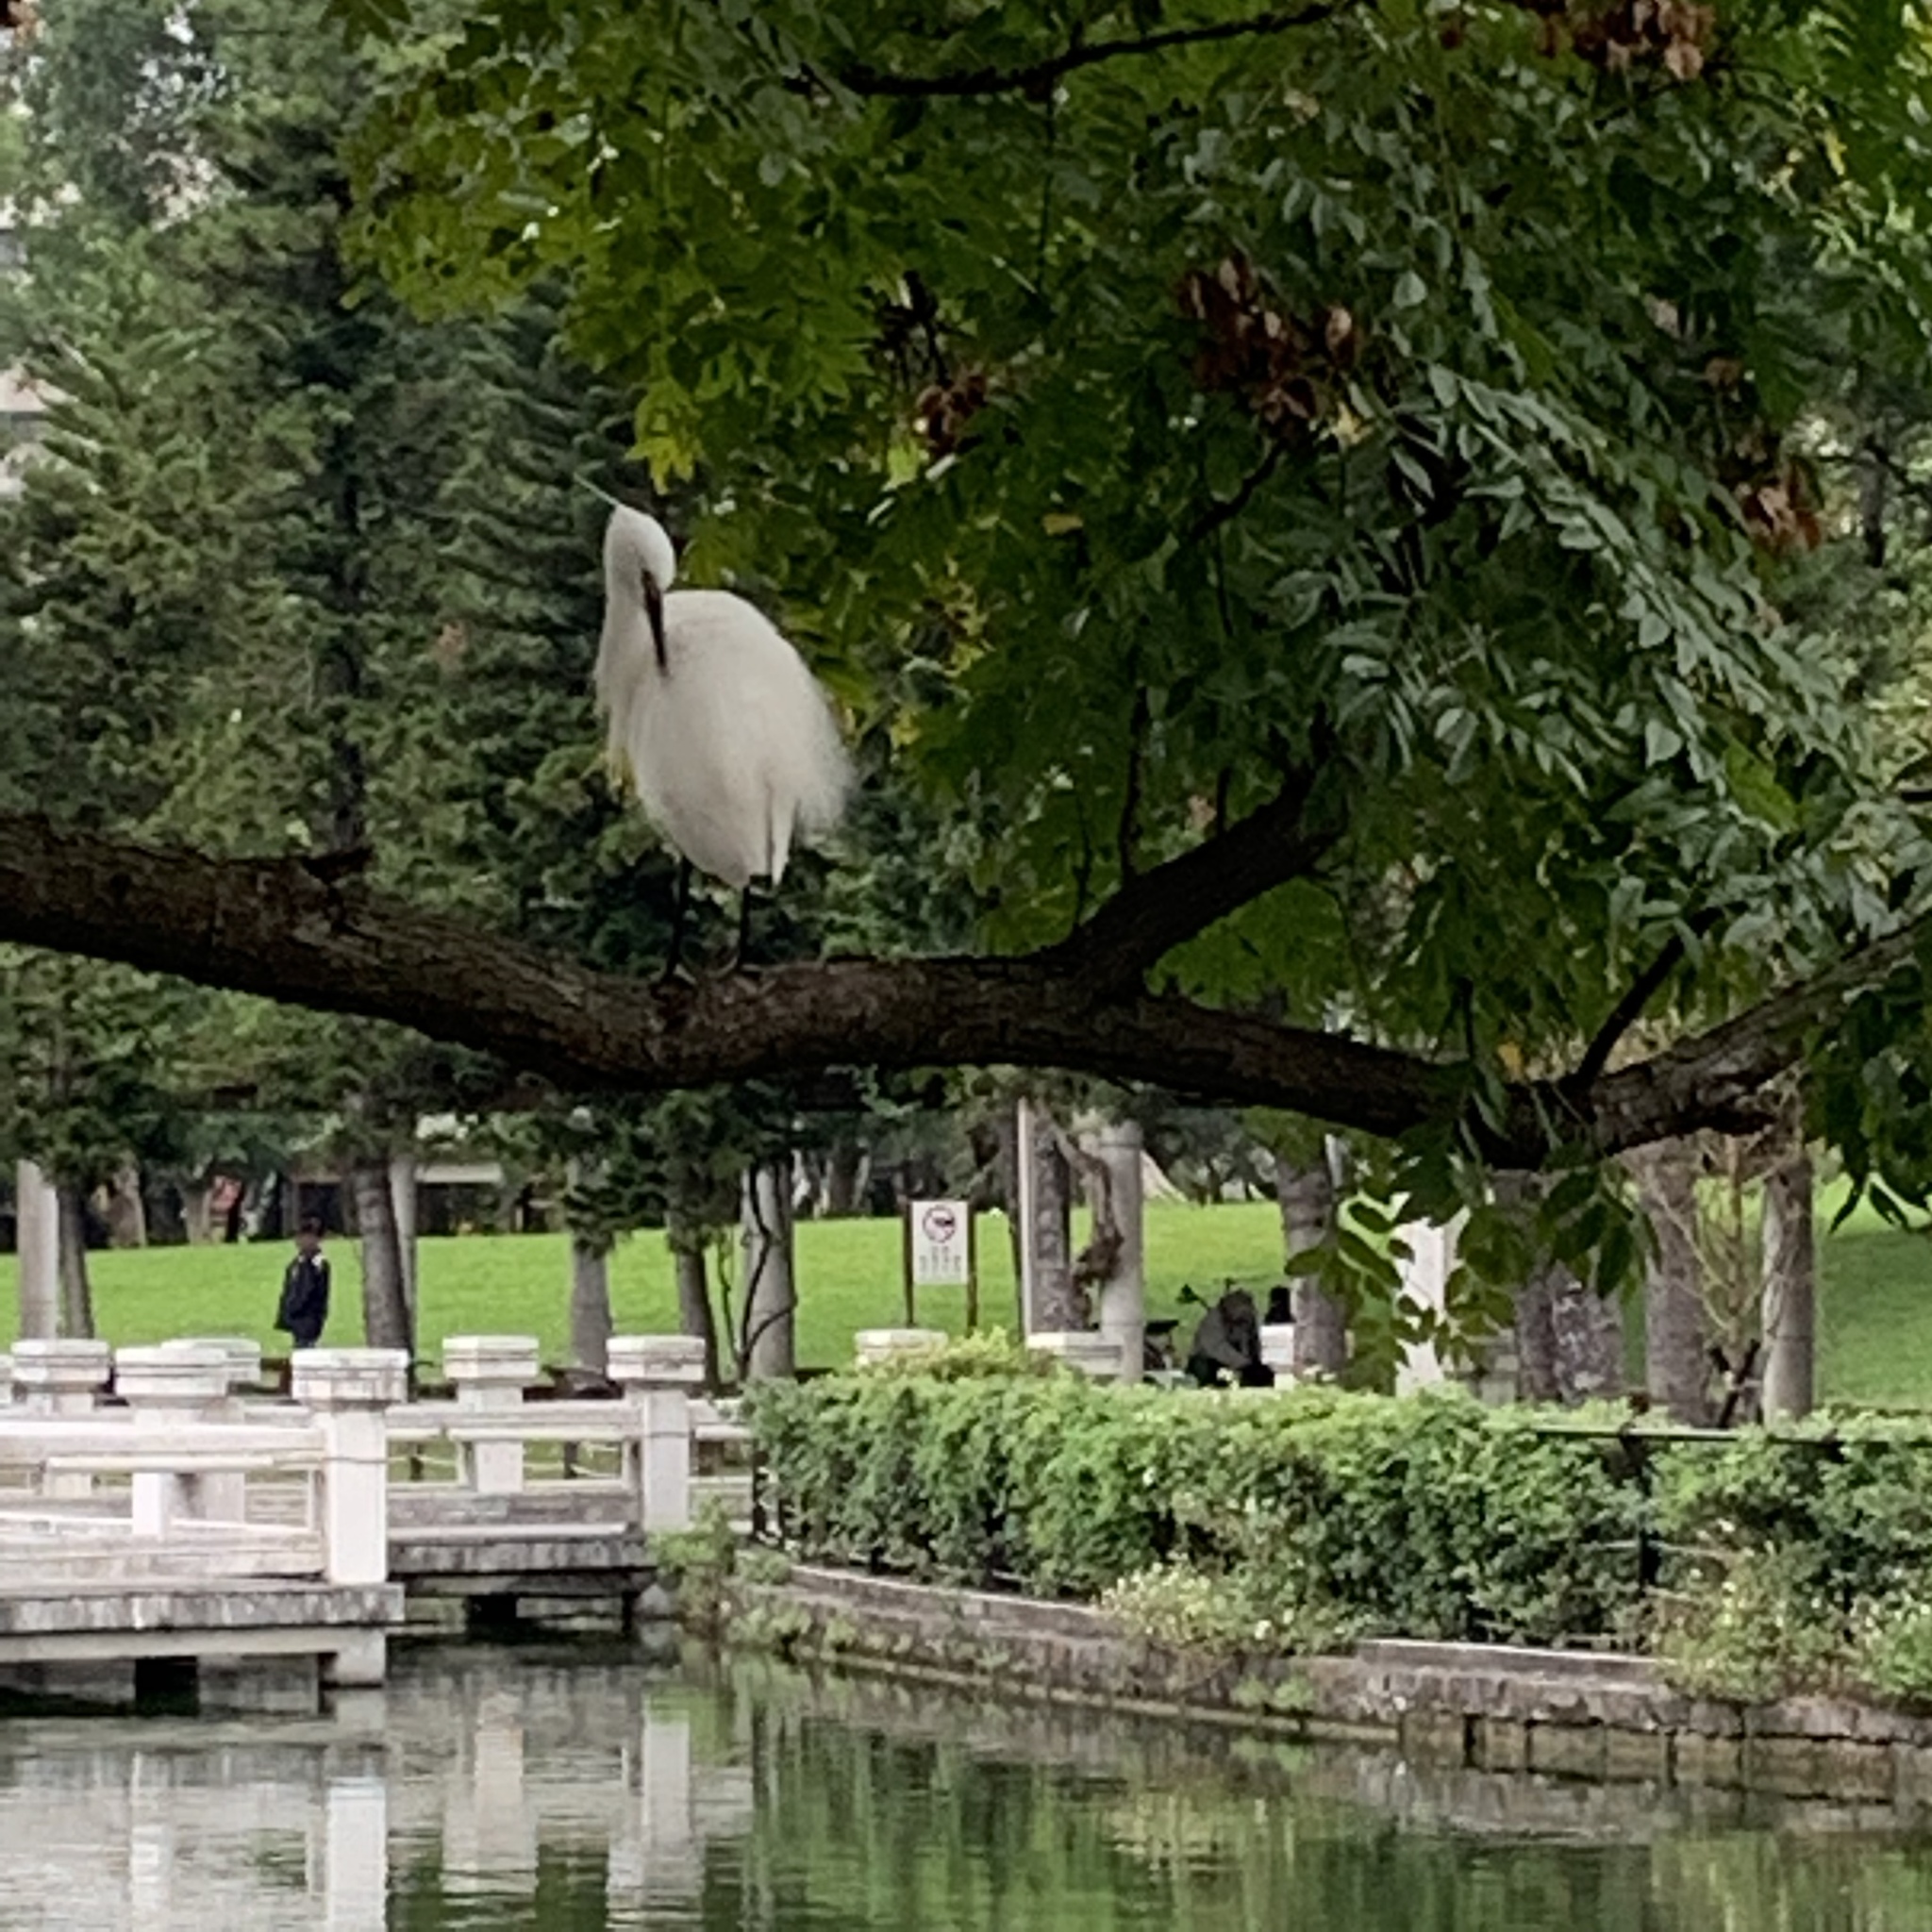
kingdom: Animalia
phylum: Chordata
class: Aves
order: Pelecaniformes
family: Ardeidae
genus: Egretta
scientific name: Egretta garzetta
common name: Little egret
